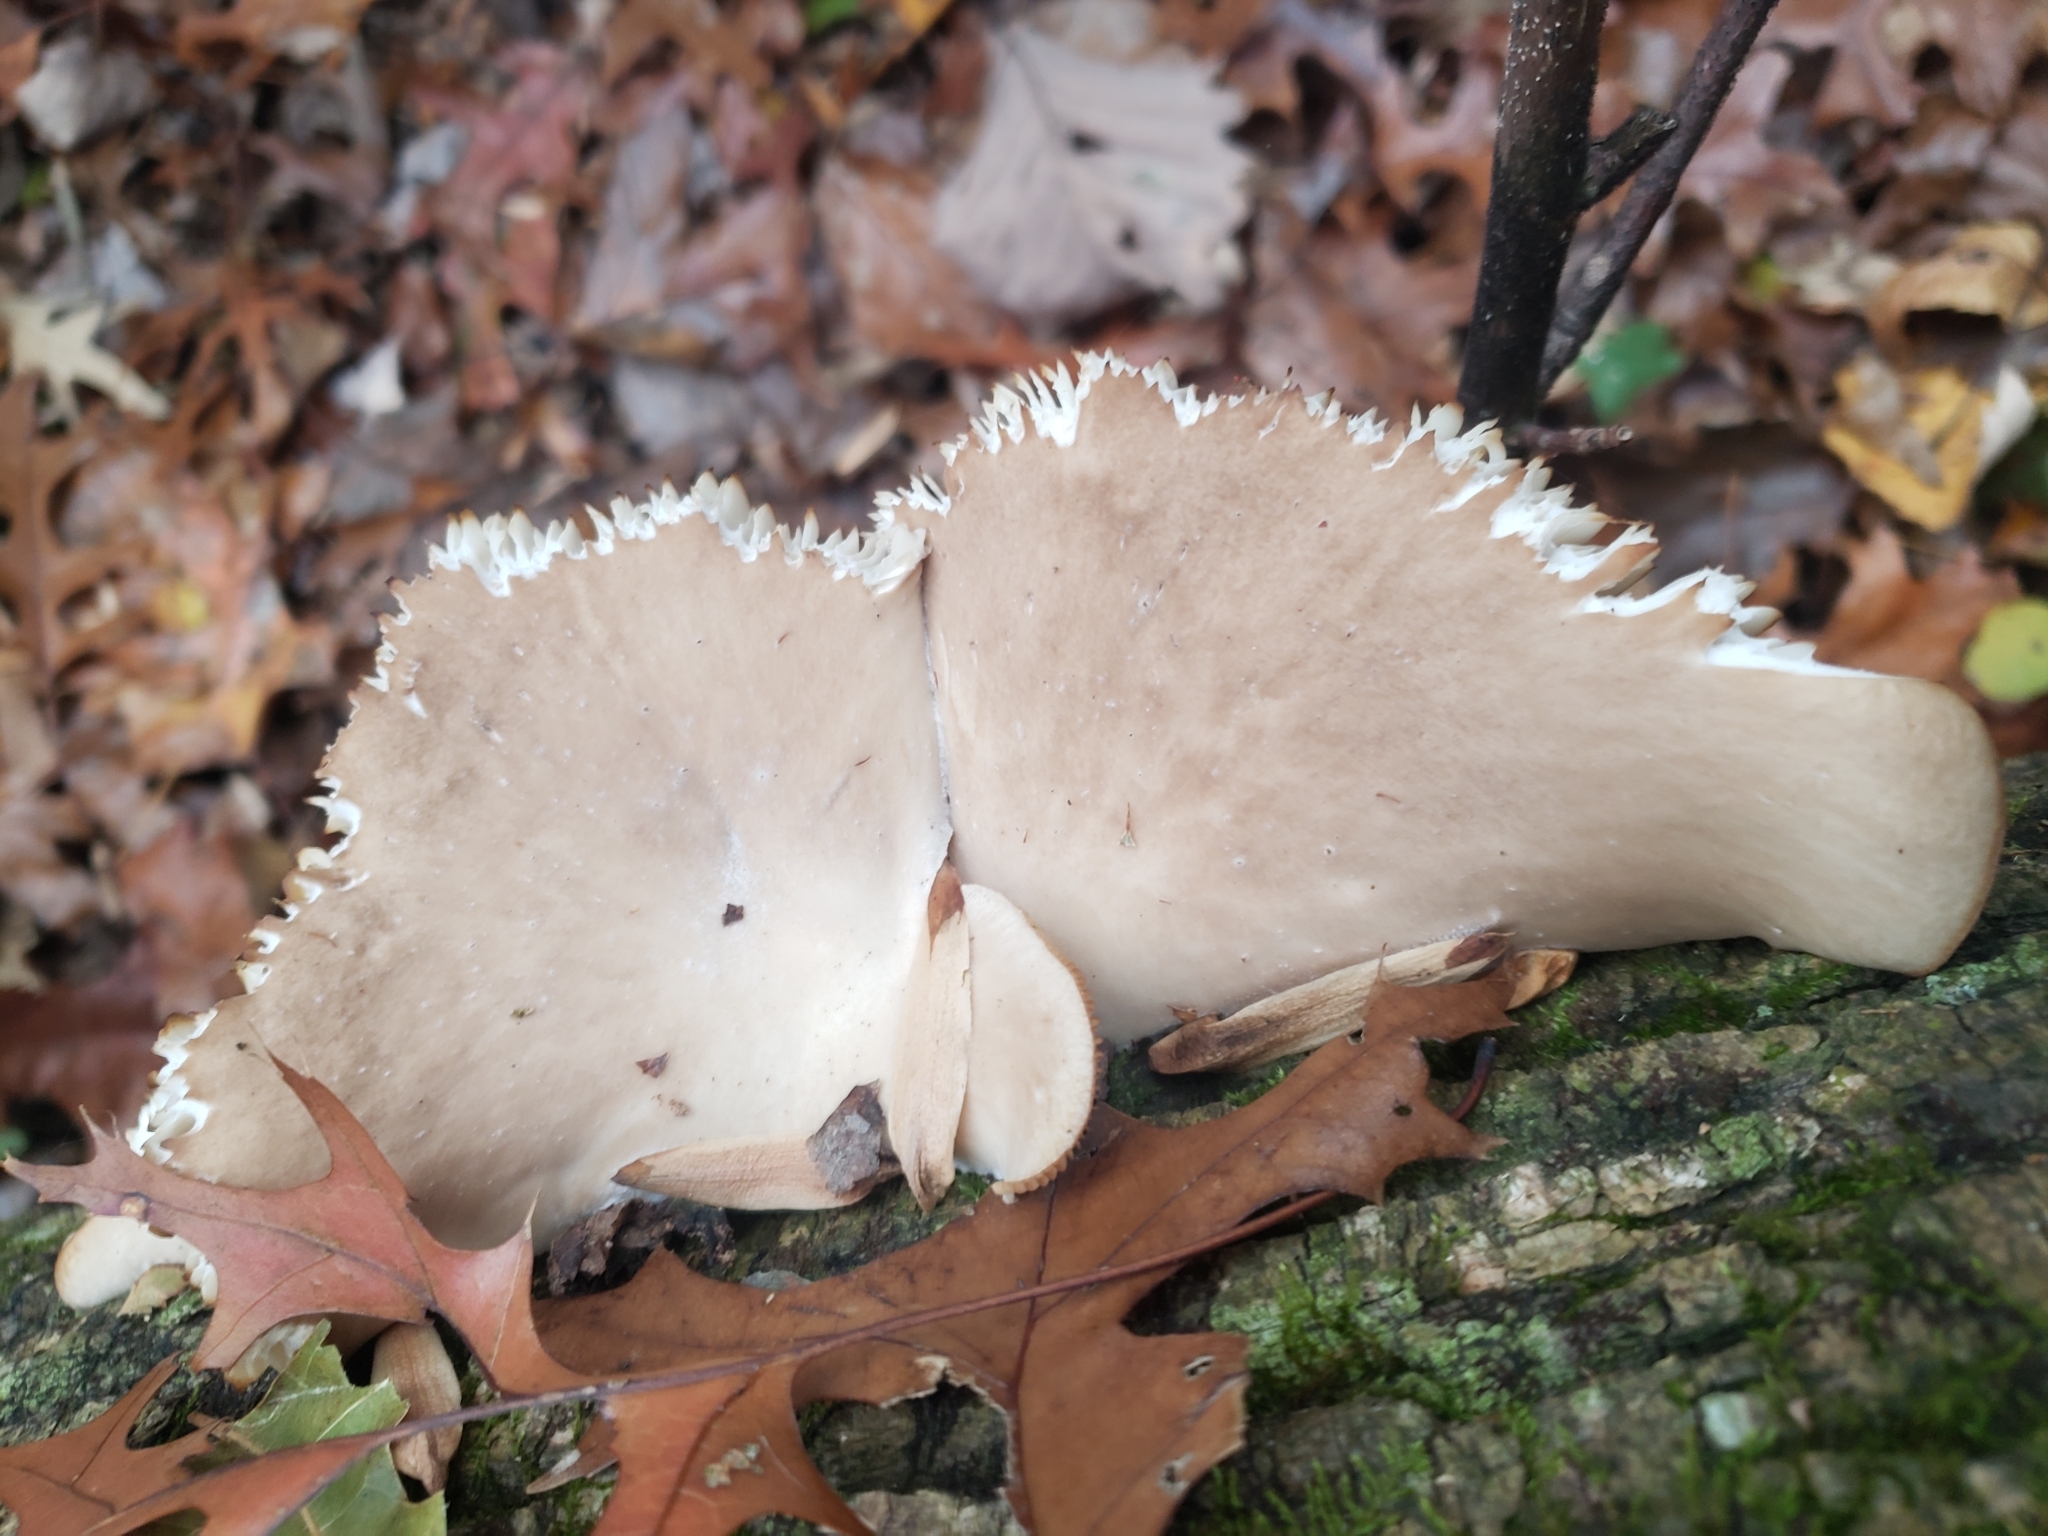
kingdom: Fungi
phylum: Basidiomycota
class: Agaricomycetes
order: Agaricales
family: Pleurotaceae
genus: Pleurotus
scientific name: Pleurotus ostreatus
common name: Oyster mushroom
